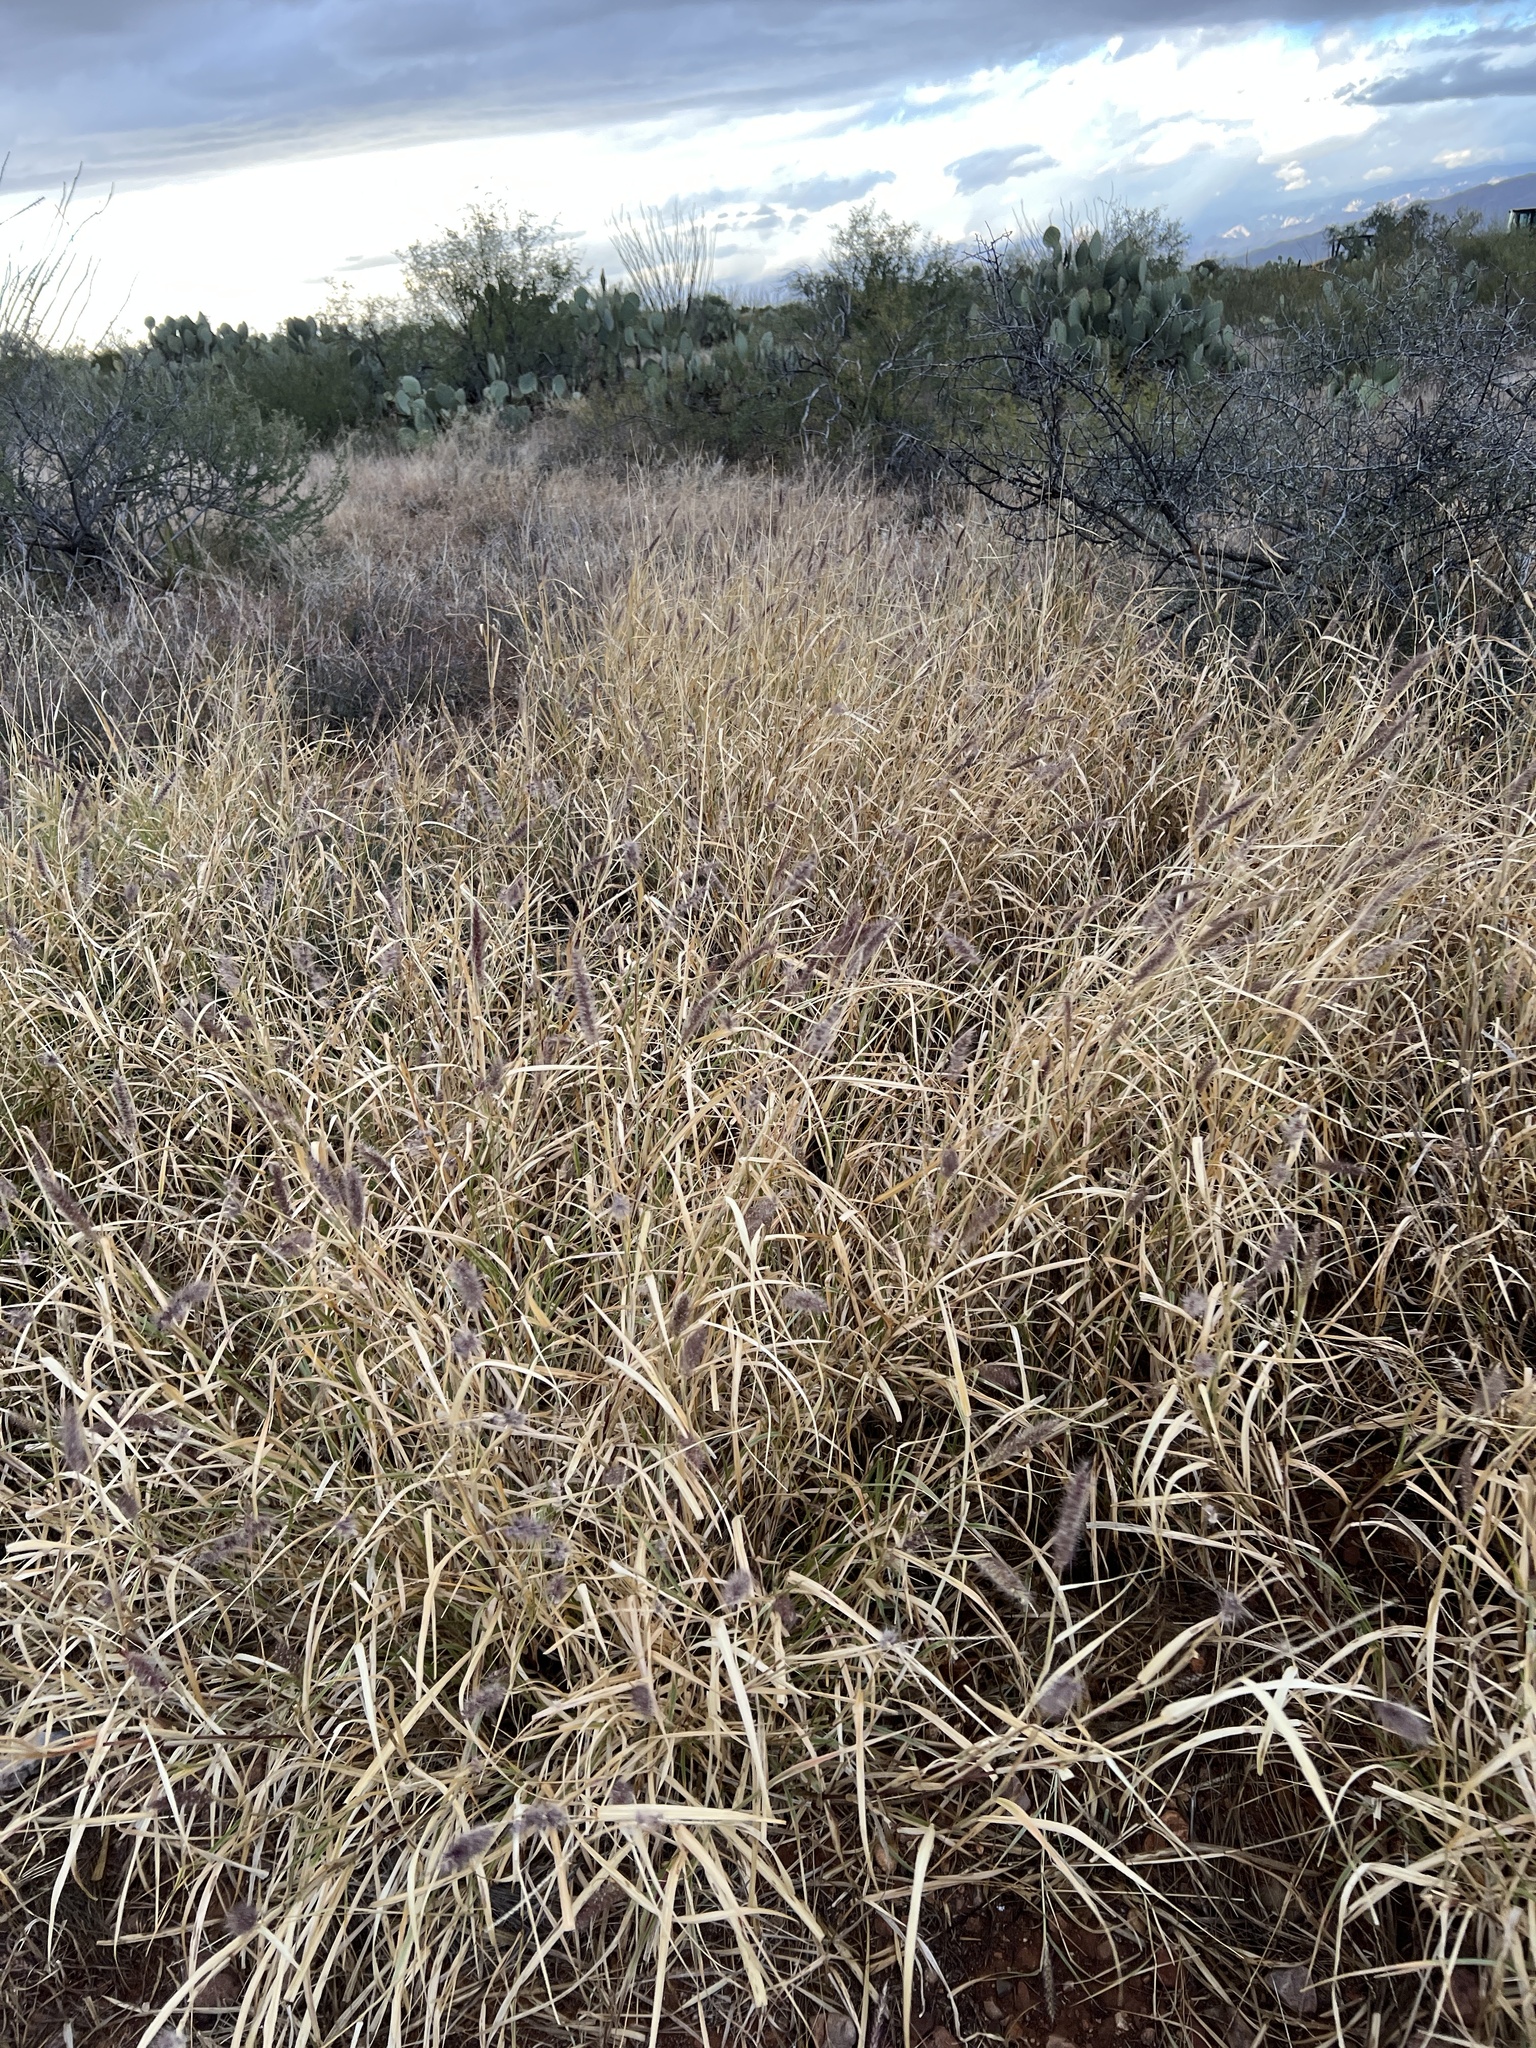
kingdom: Plantae
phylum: Tracheophyta
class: Liliopsida
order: Poales
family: Poaceae
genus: Cenchrus
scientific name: Cenchrus ciliaris
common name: Buffelgrass
